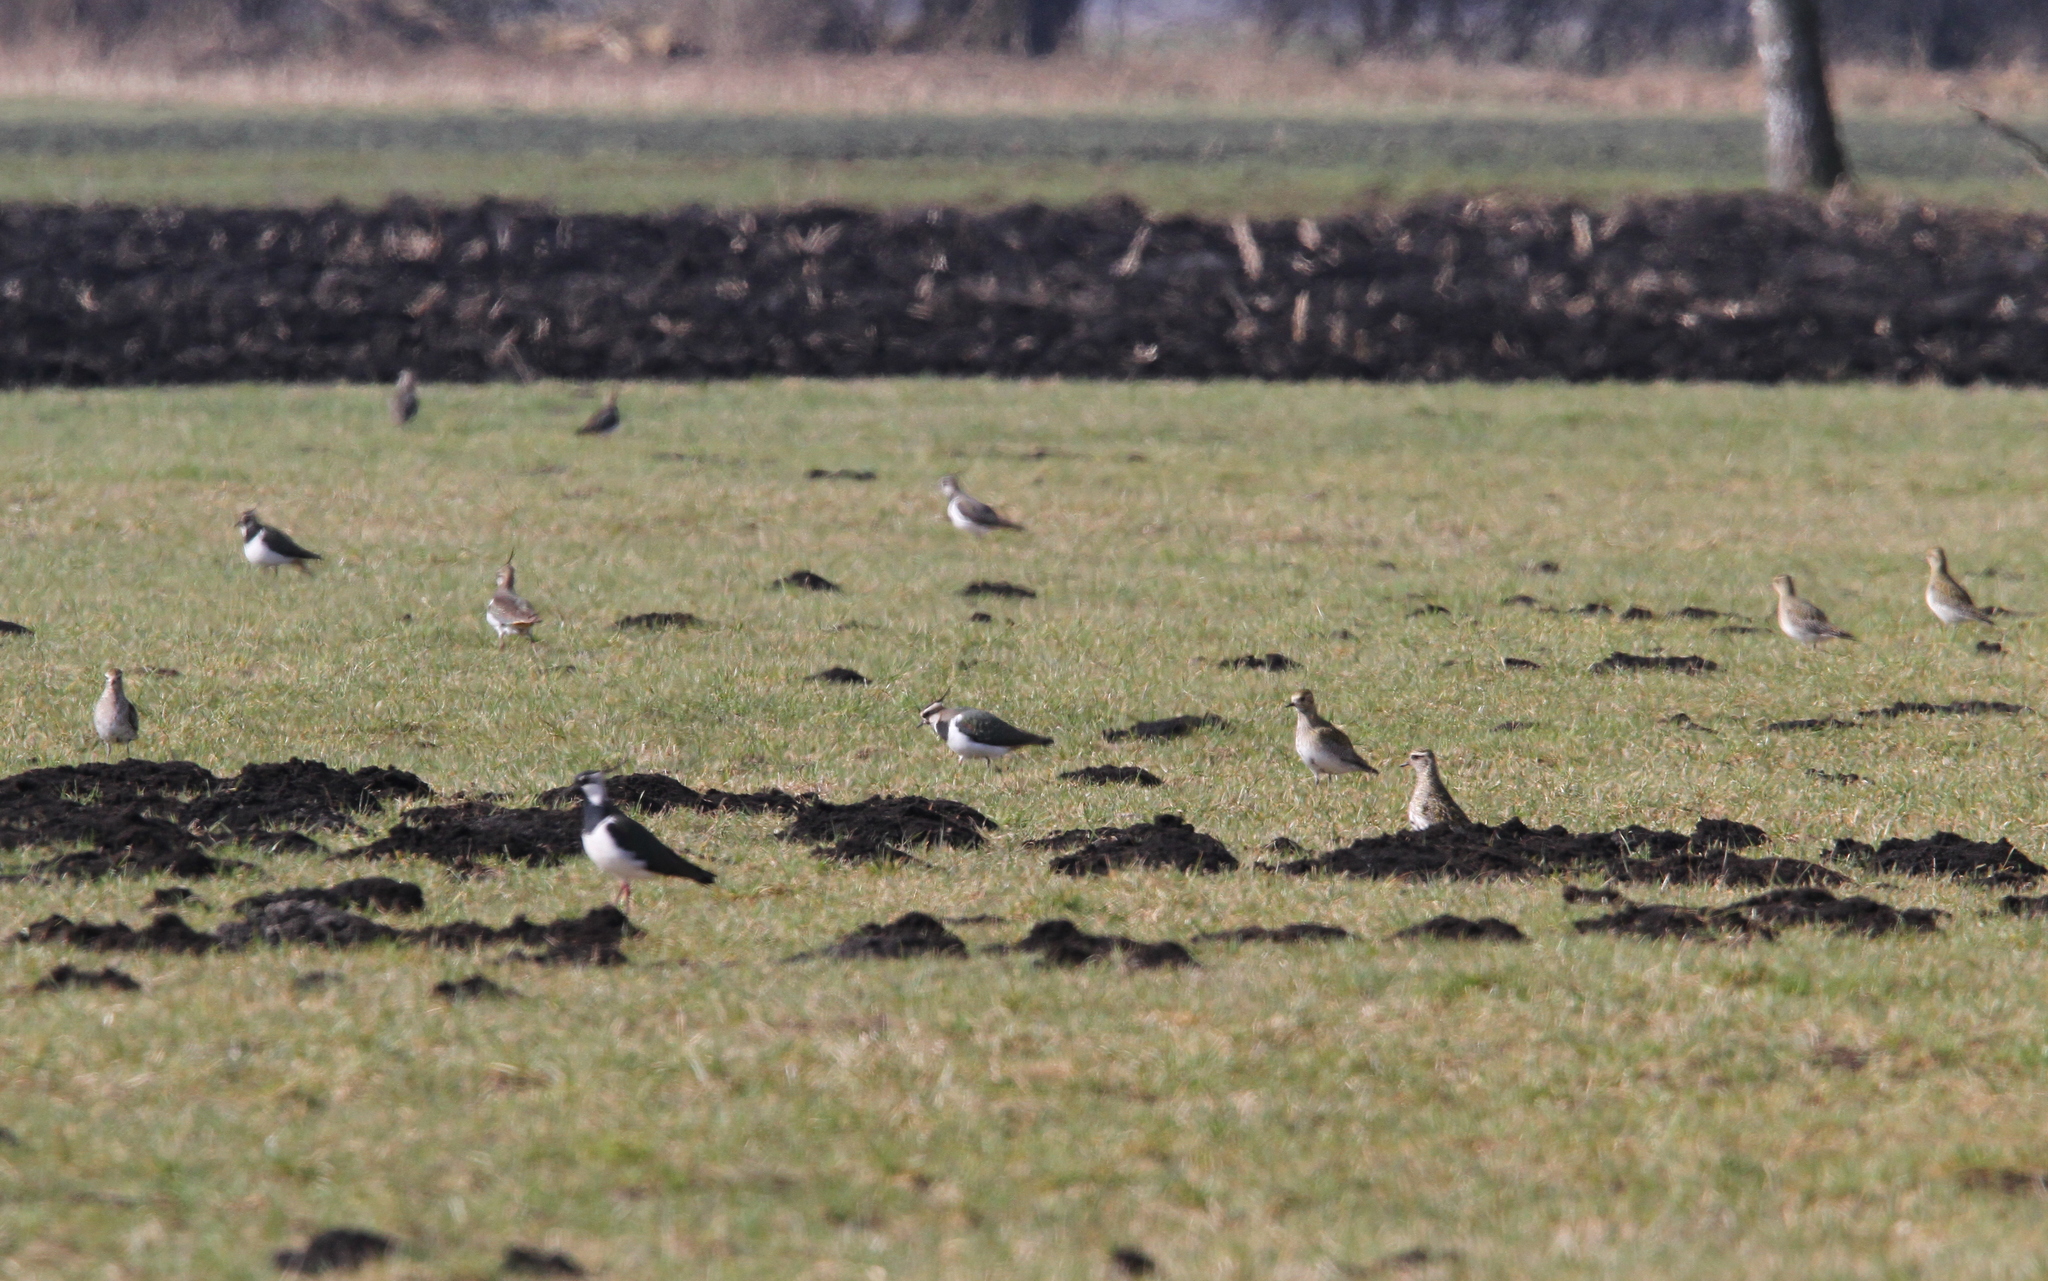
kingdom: Animalia
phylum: Chordata
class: Aves
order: Charadriiformes
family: Charadriidae
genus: Pluvialis
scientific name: Pluvialis apricaria
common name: European golden plover
